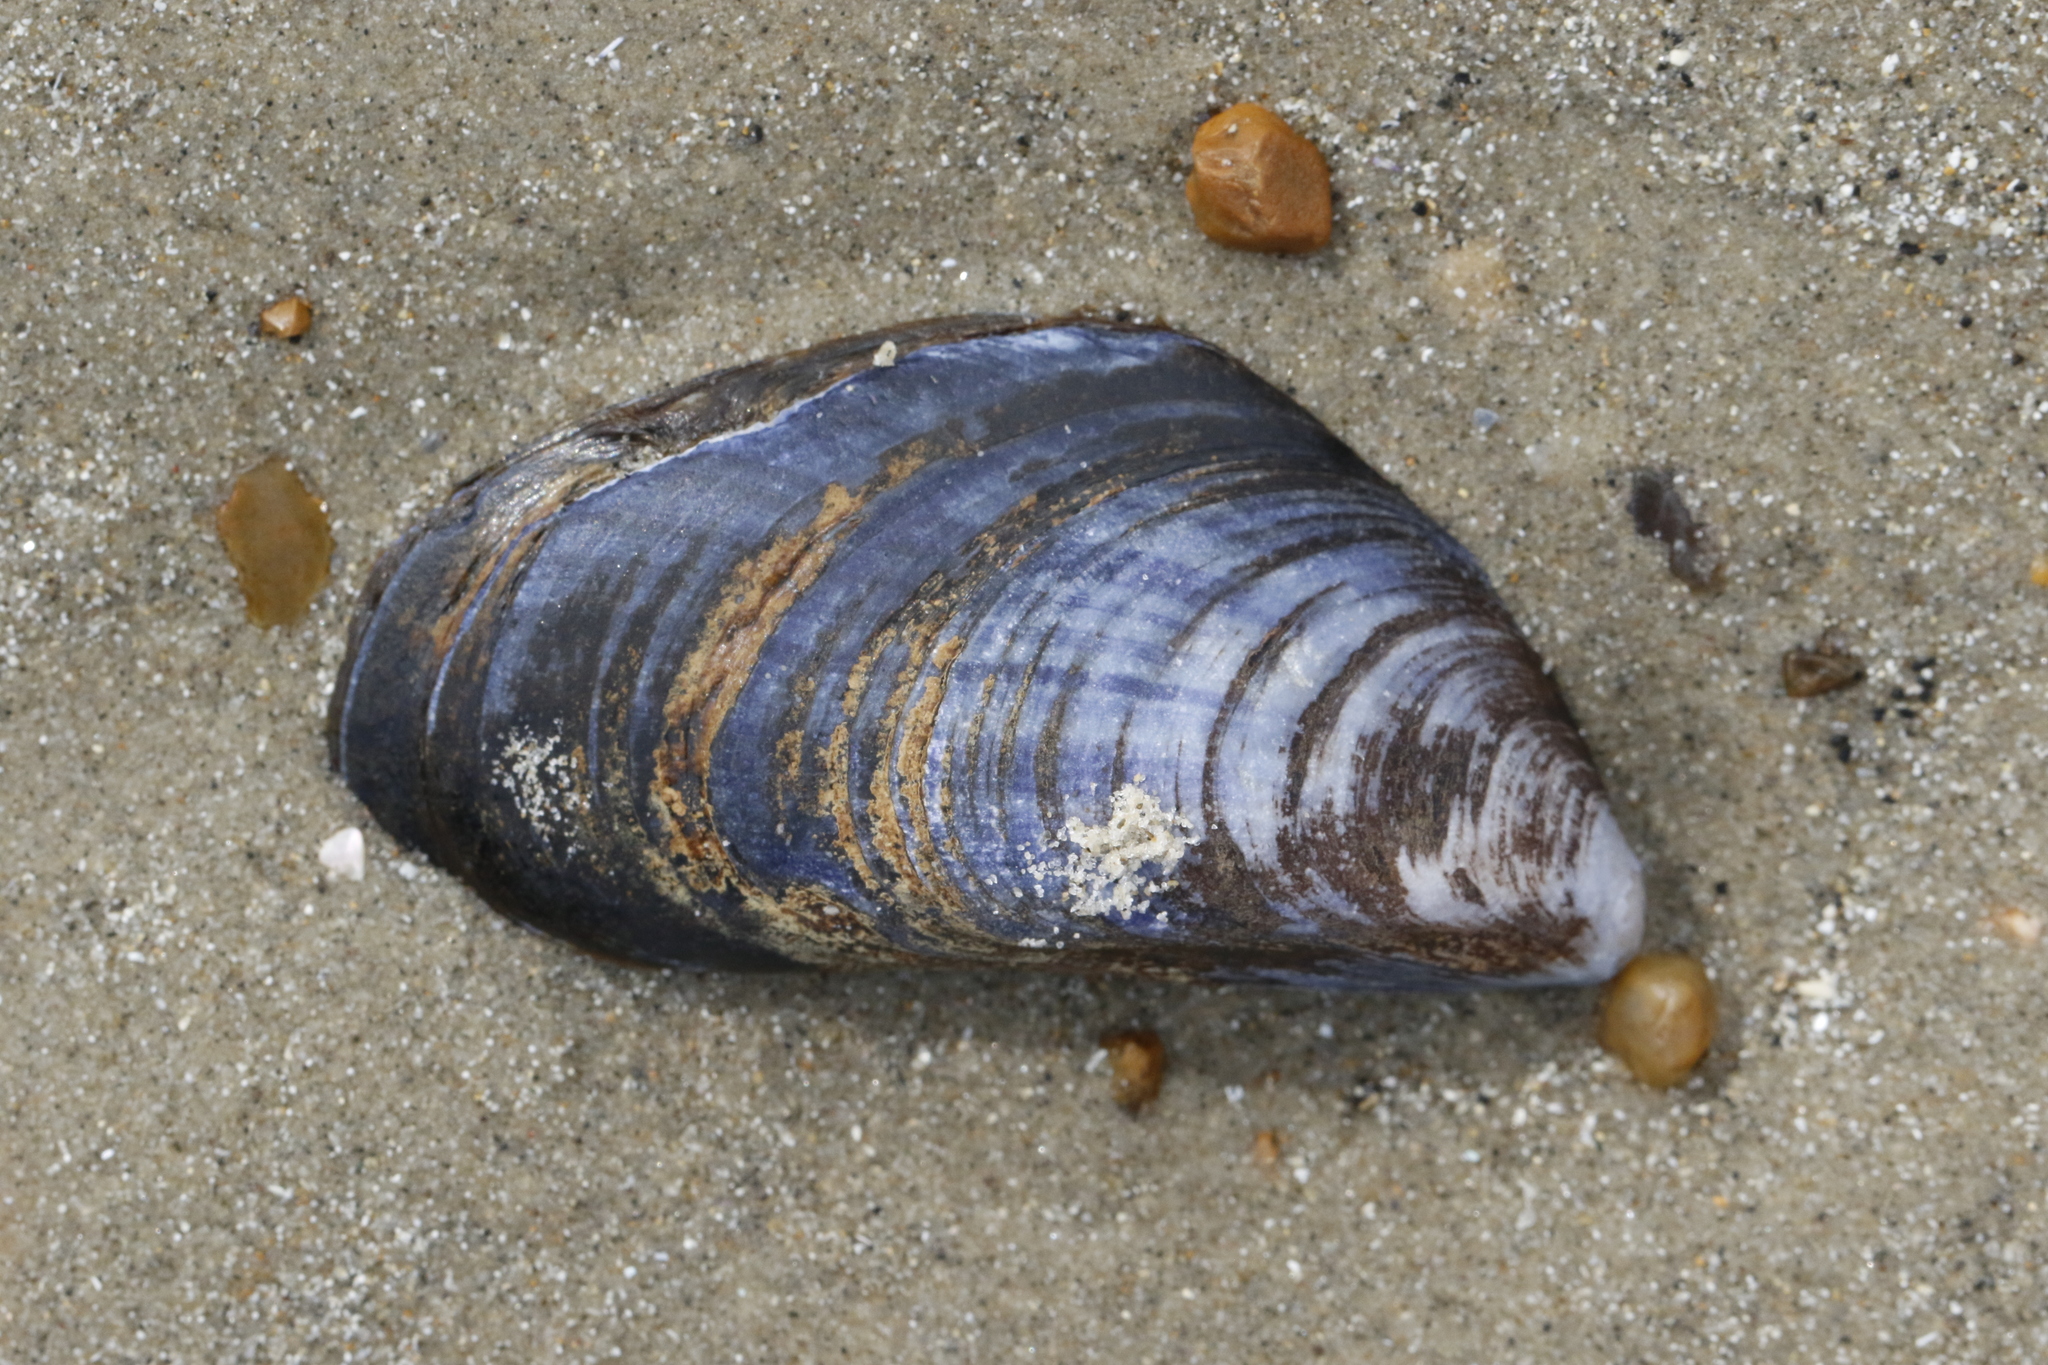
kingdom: Animalia
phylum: Mollusca
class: Bivalvia
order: Mytilida
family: Mytilidae
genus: Mytilus
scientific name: Mytilus edulis
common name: Blue mussel
